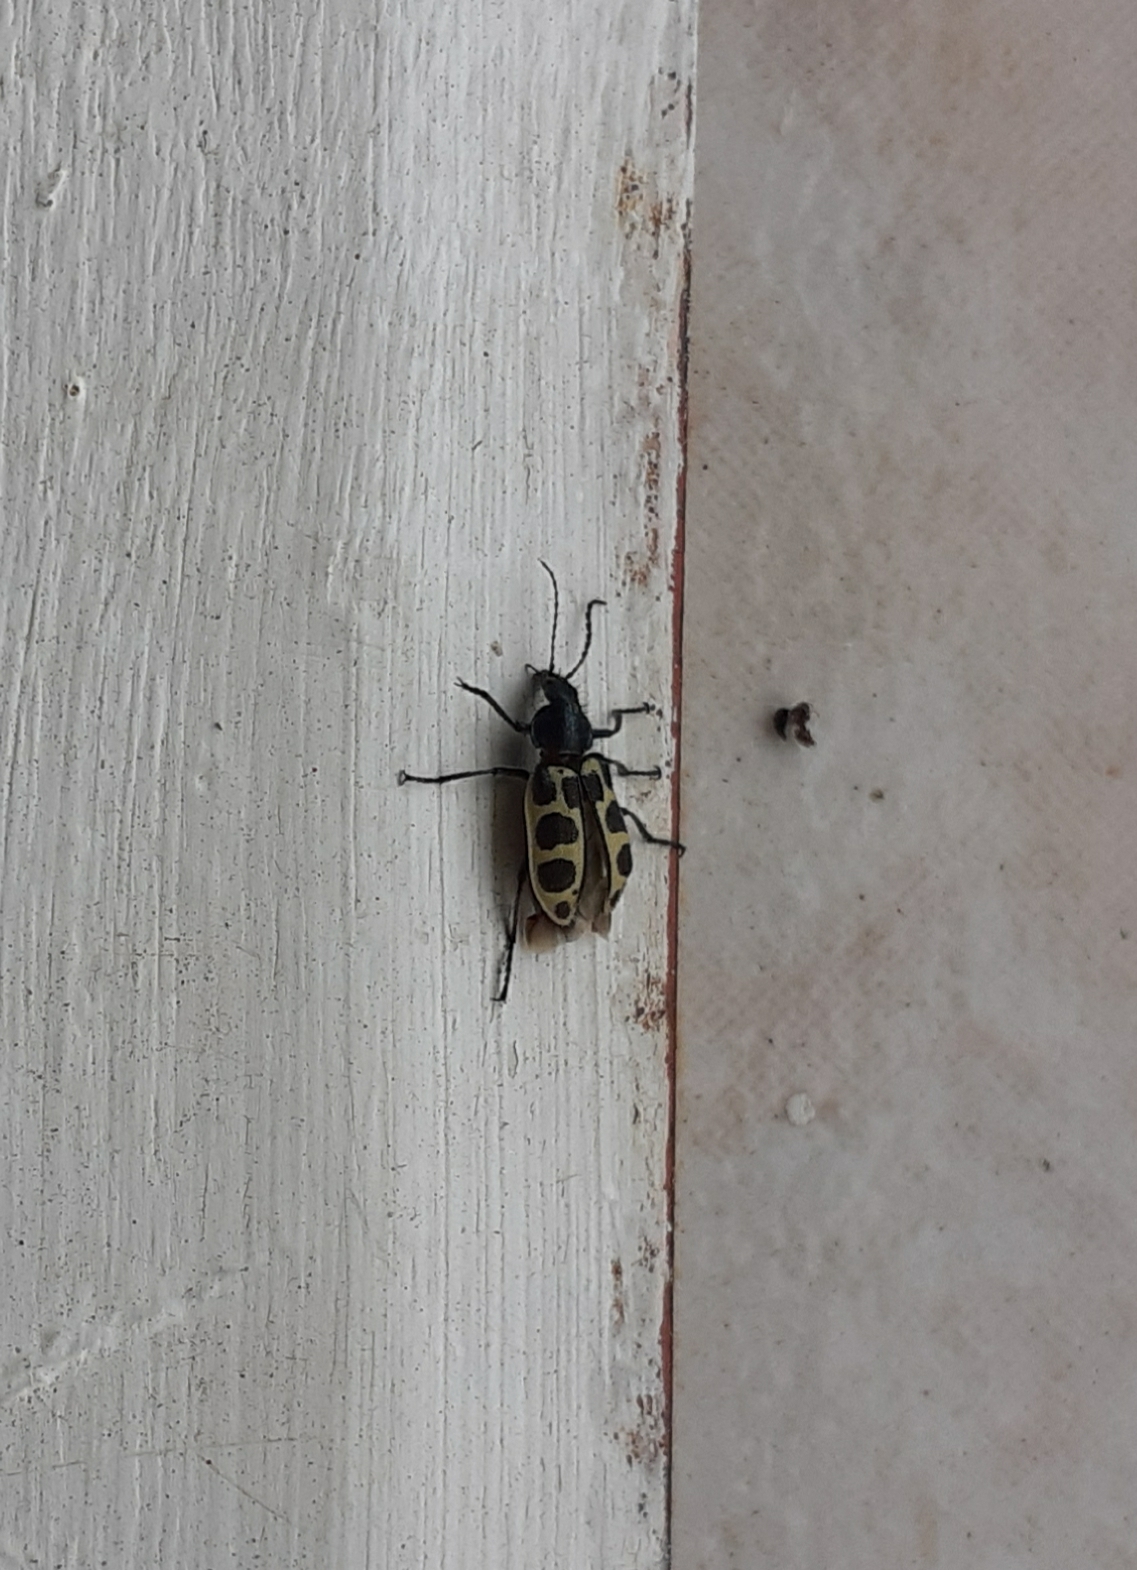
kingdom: Animalia
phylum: Arthropoda
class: Insecta
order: Coleoptera
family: Melyridae
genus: Astylus
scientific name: Astylus
